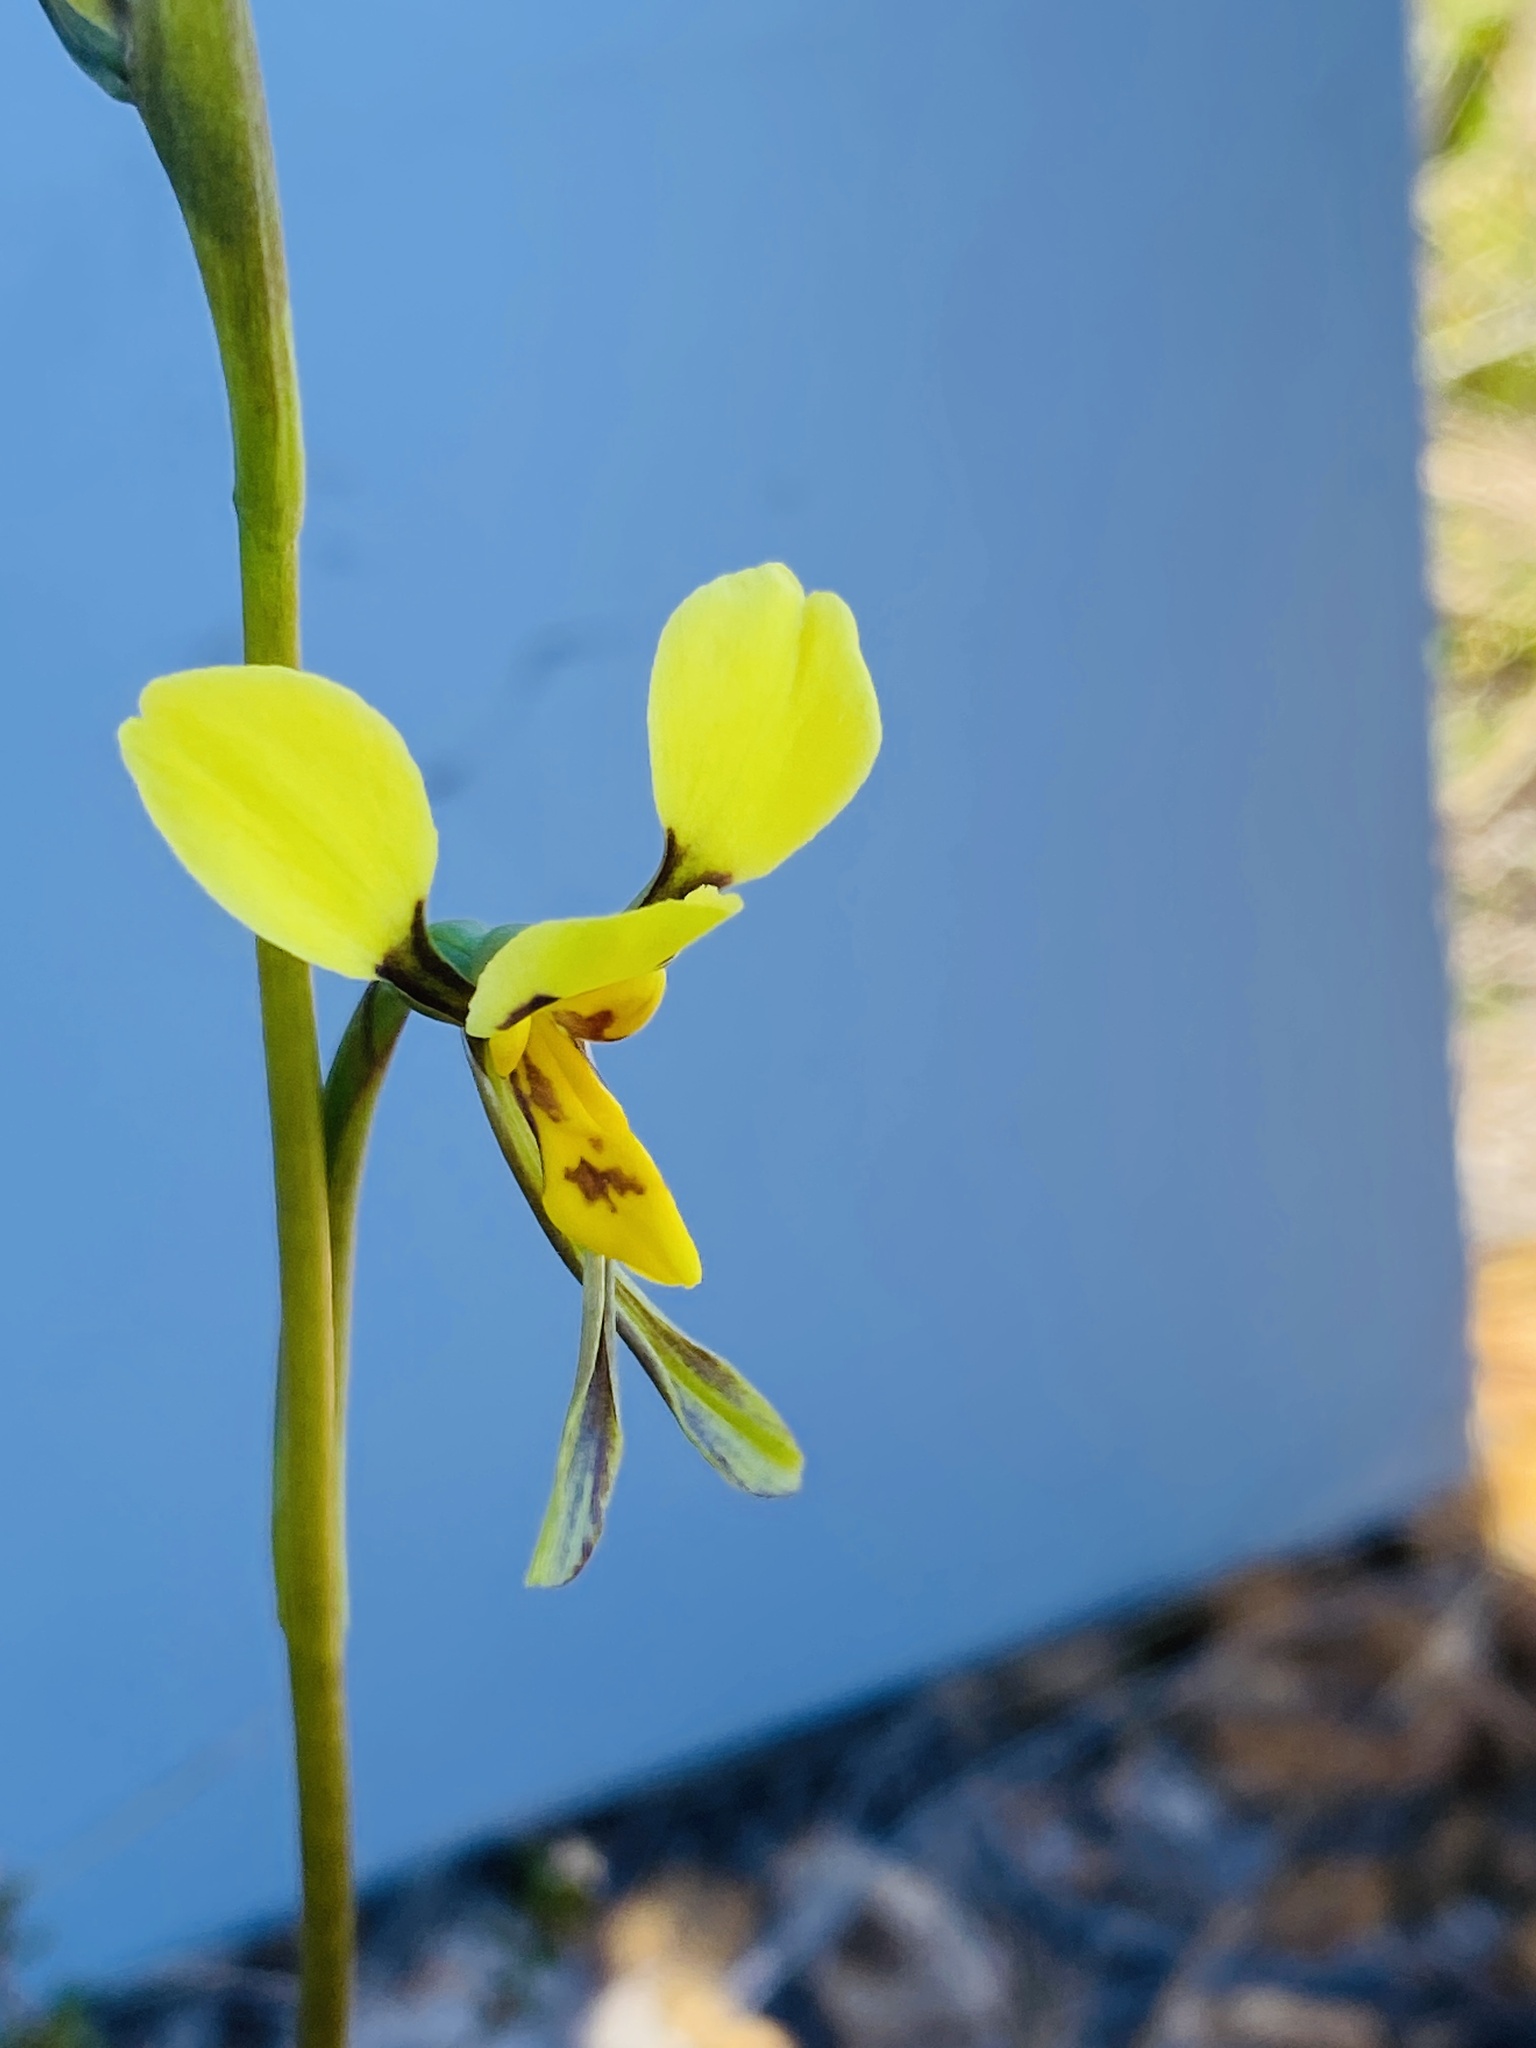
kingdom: Plantae
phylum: Tracheophyta
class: Liliopsida
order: Asparagales
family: Orchidaceae
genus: Diuris
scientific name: Diuris unica
